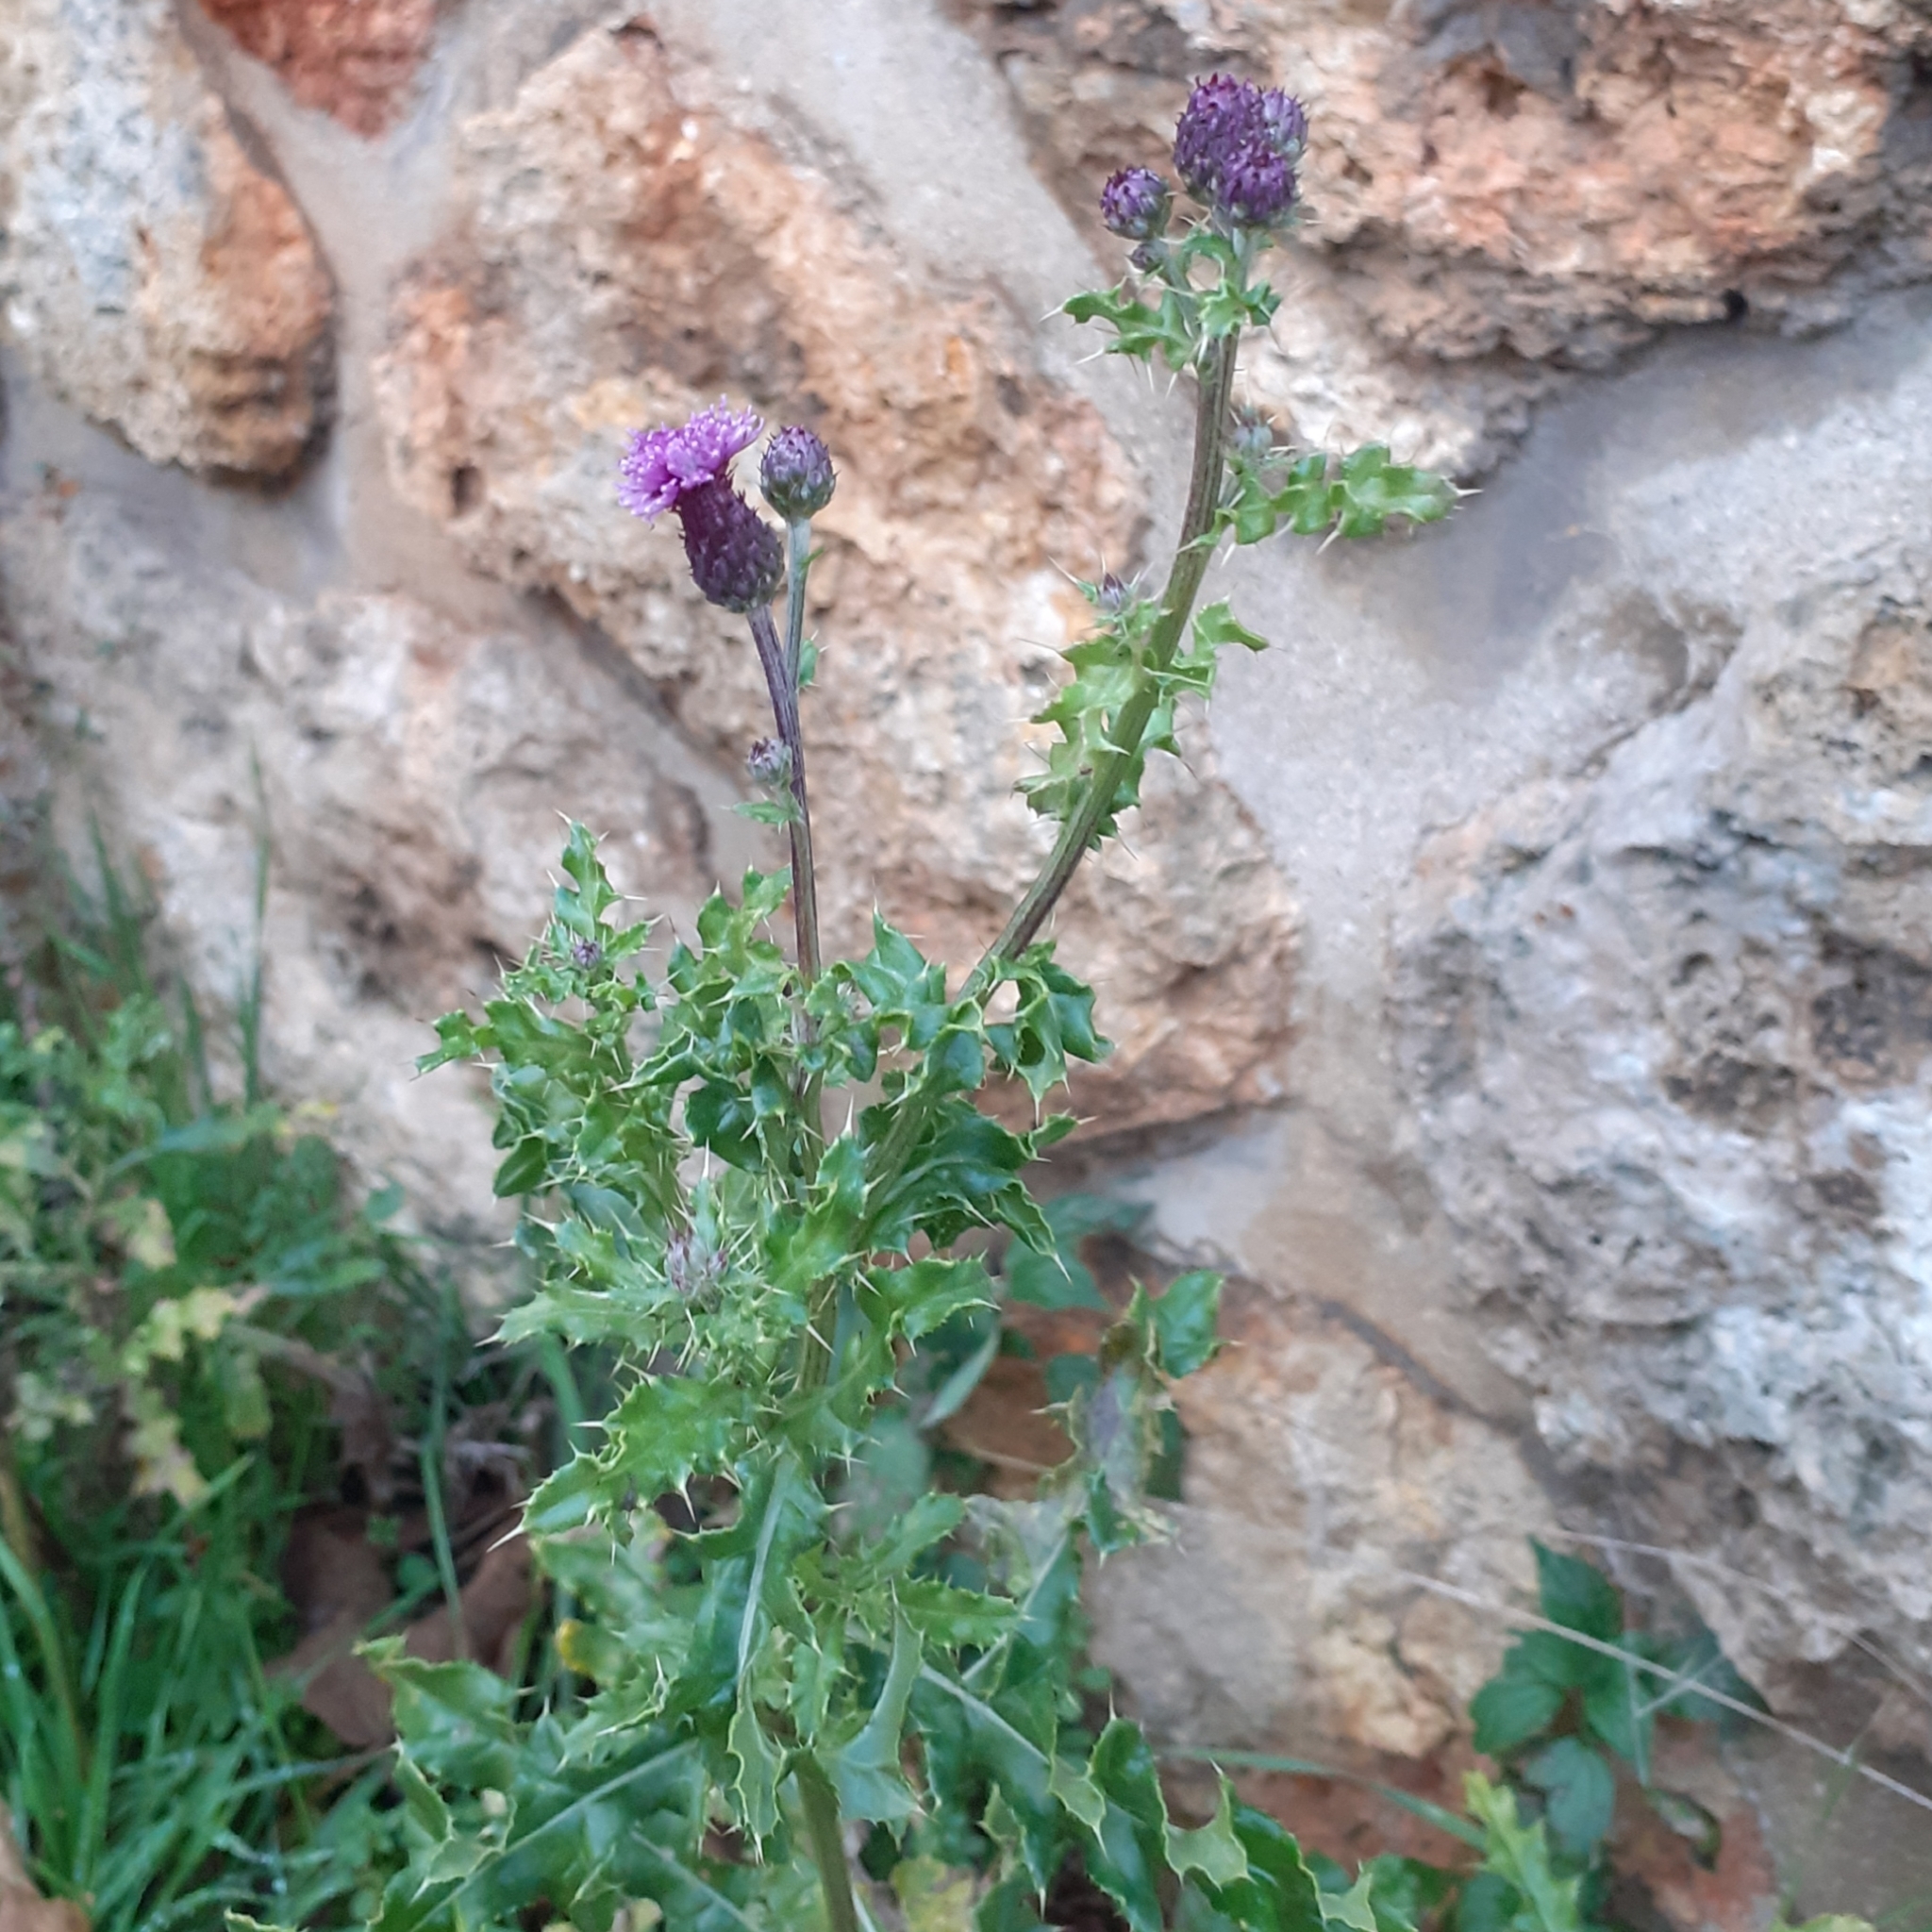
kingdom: Plantae
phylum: Tracheophyta
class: Magnoliopsida
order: Asterales
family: Asteraceae
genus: Cirsium
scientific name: Cirsium arvense
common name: Creeping thistle
